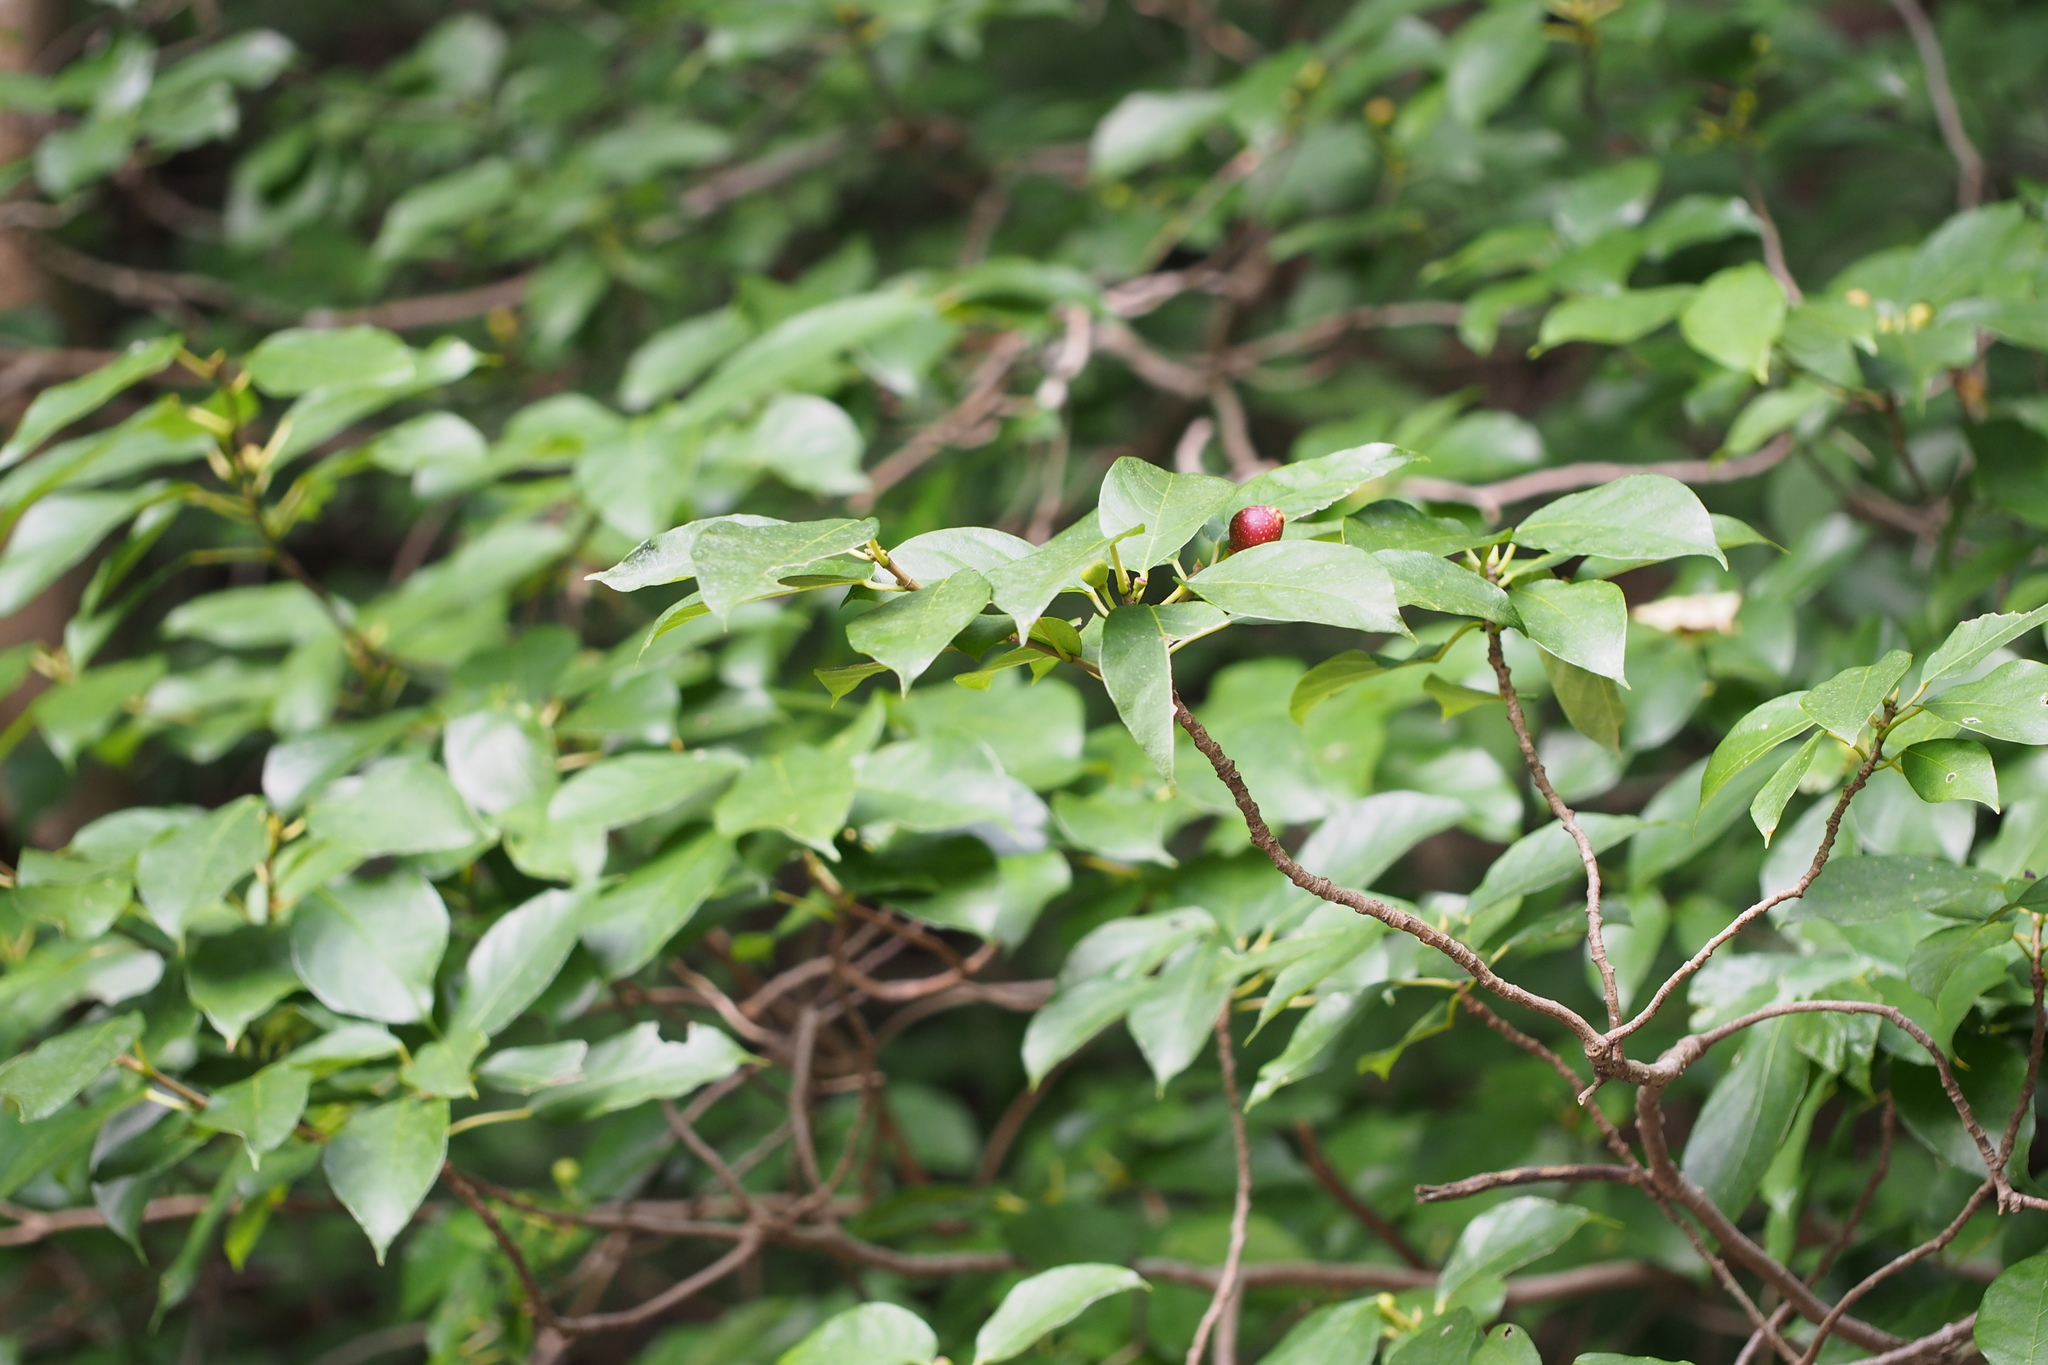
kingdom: Plantae
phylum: Tracheophyta
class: Magnoliopsida
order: Rosales
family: Moraceae
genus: Ficus
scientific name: Ficus erecta
